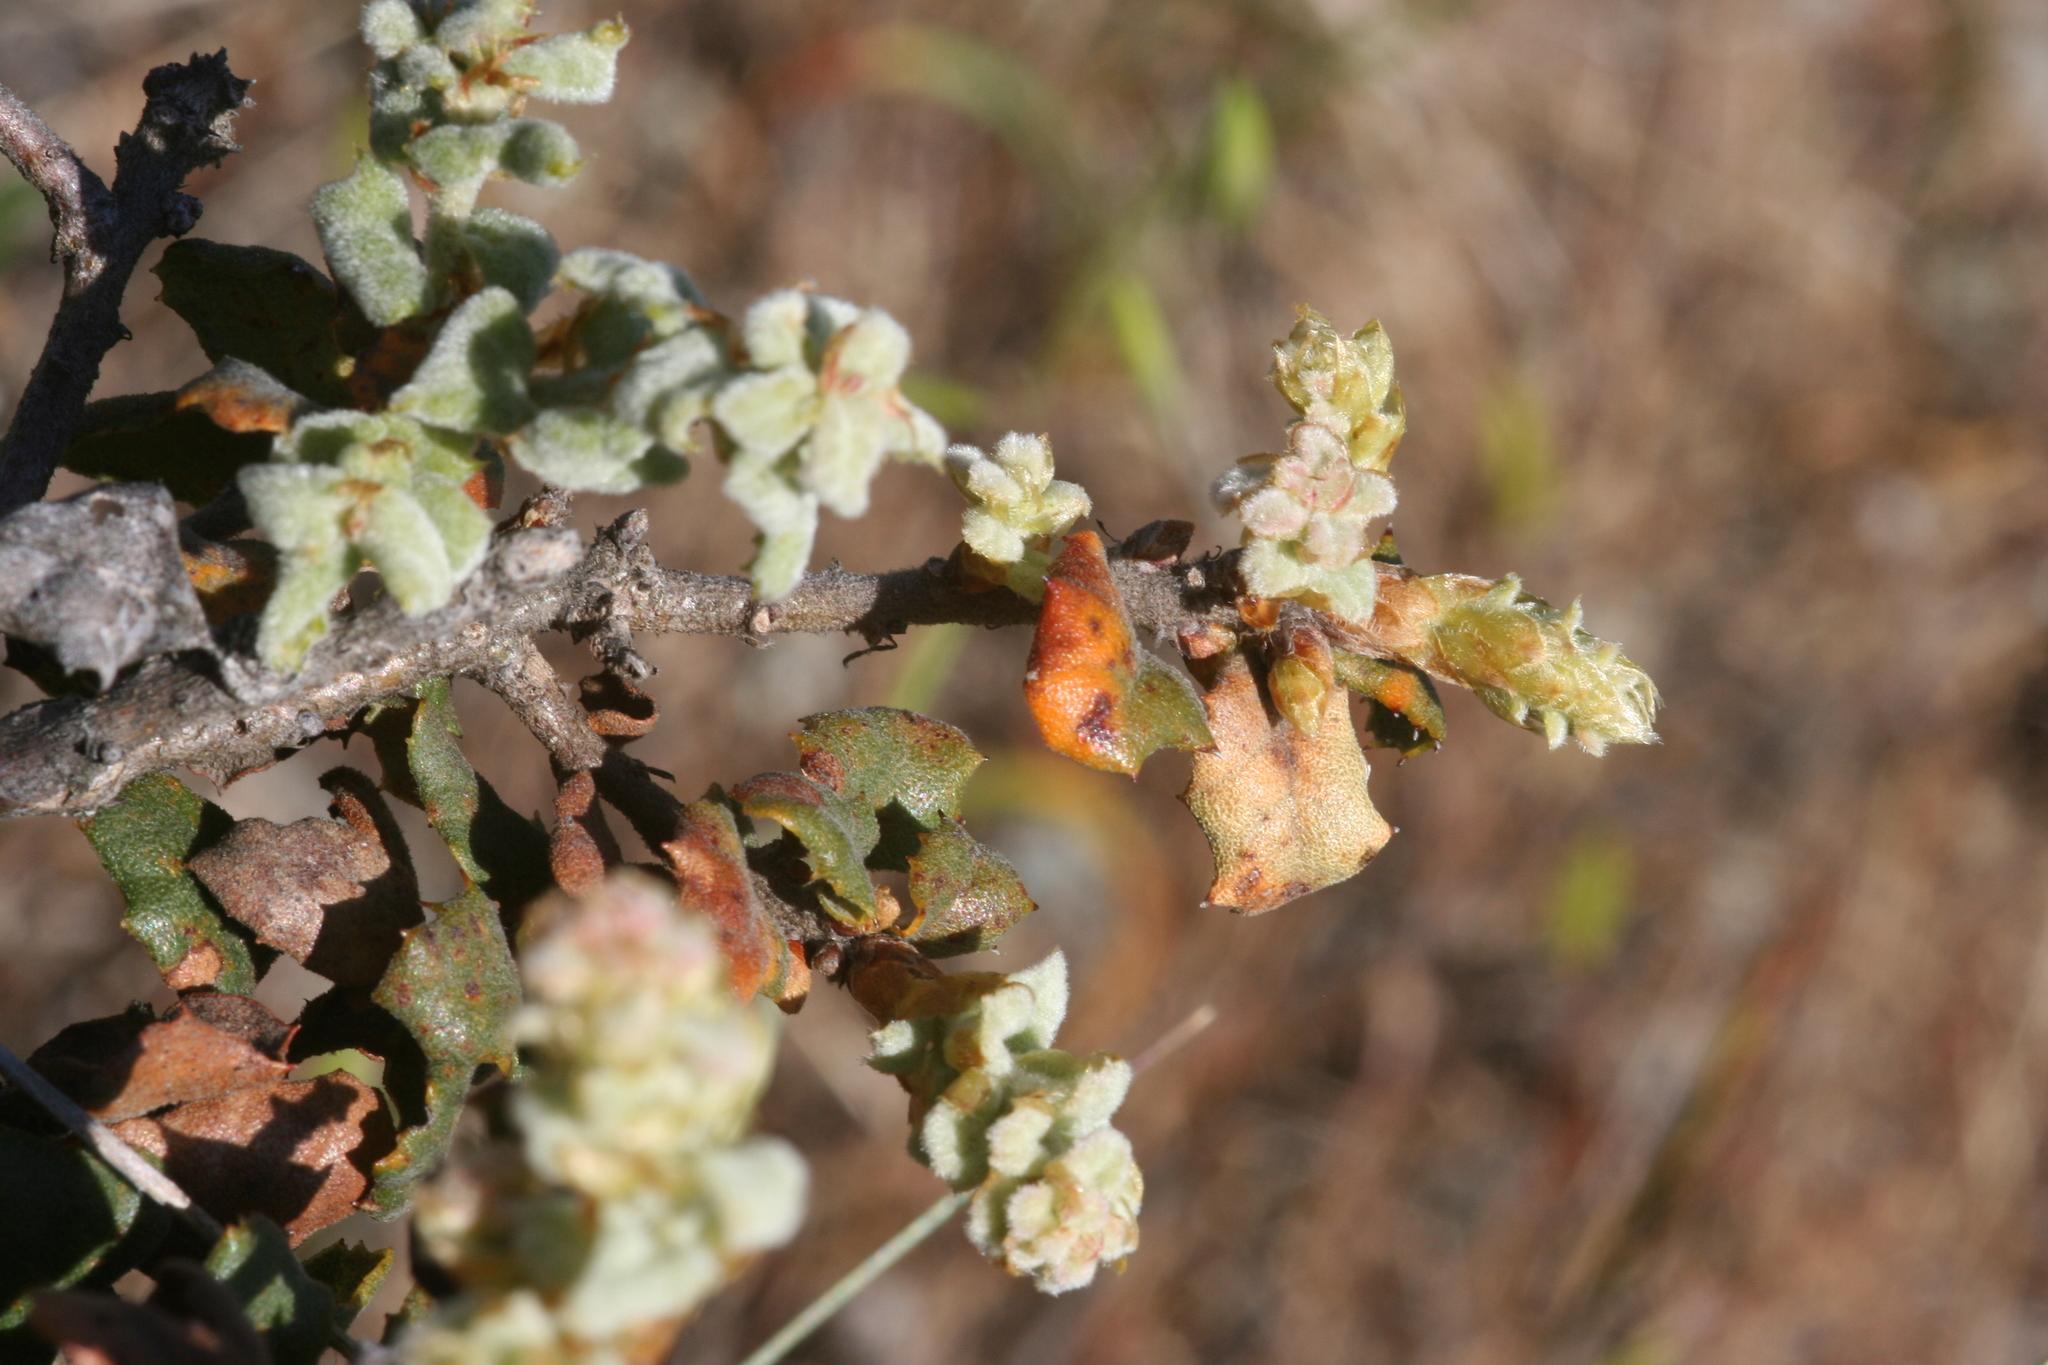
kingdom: Plantae
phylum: Tracheophyta
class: Magnoliopsida
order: Fagales
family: Fagaceae
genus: Quercus
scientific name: Quercus durata
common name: Leather oak
